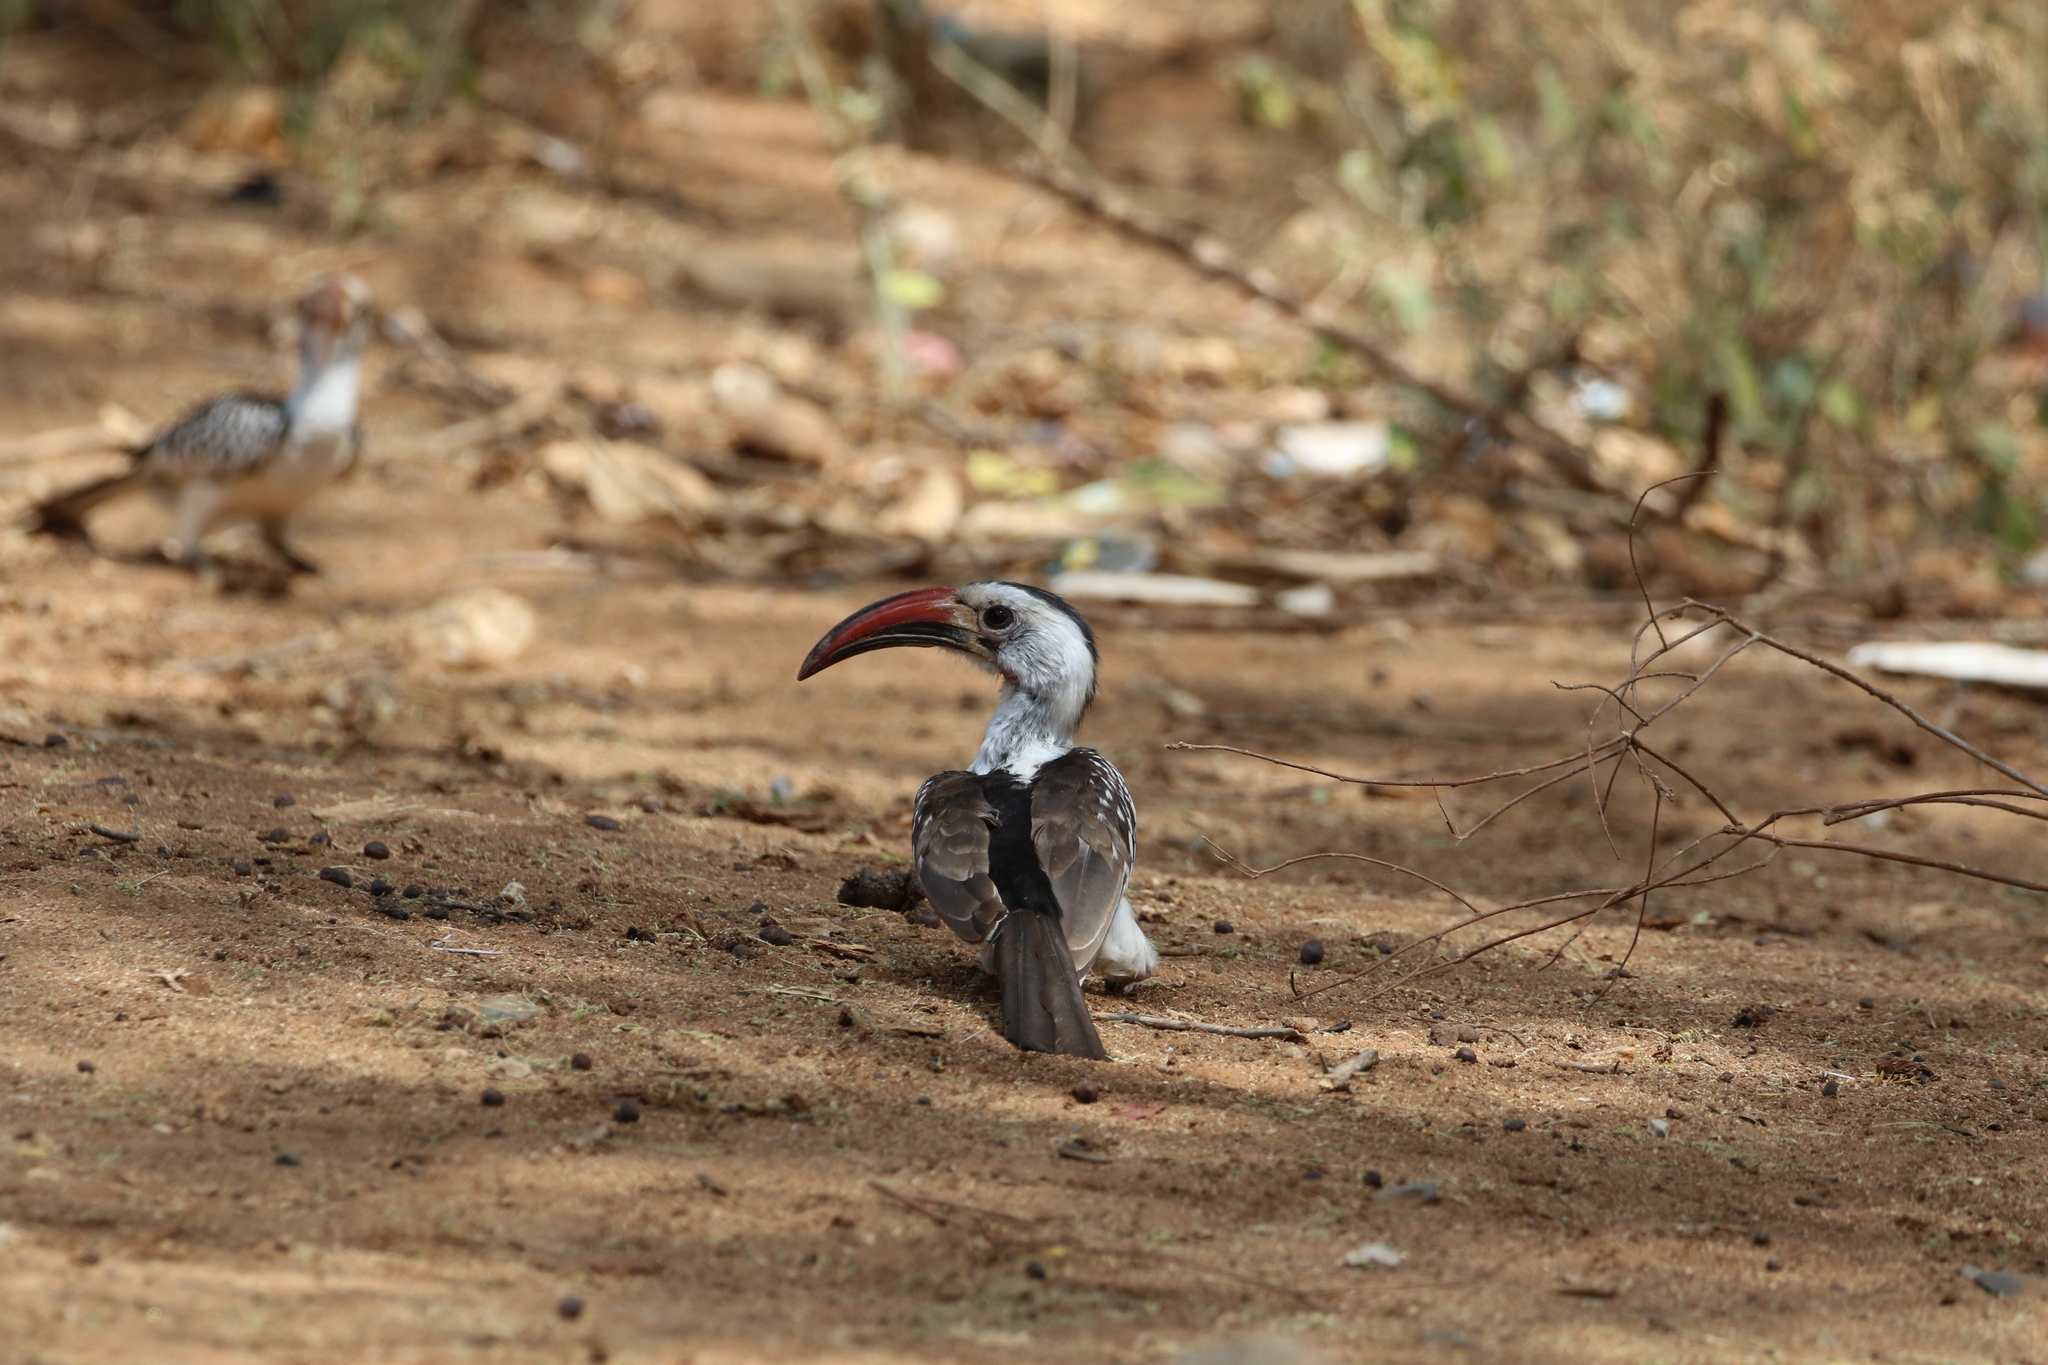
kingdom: Animalia
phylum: Chordata
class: Aves
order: Bucerotiformes
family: Bucerotidae
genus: Tockus
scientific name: Tockus erythrorhynchus
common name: Northern red-billed hornbill
